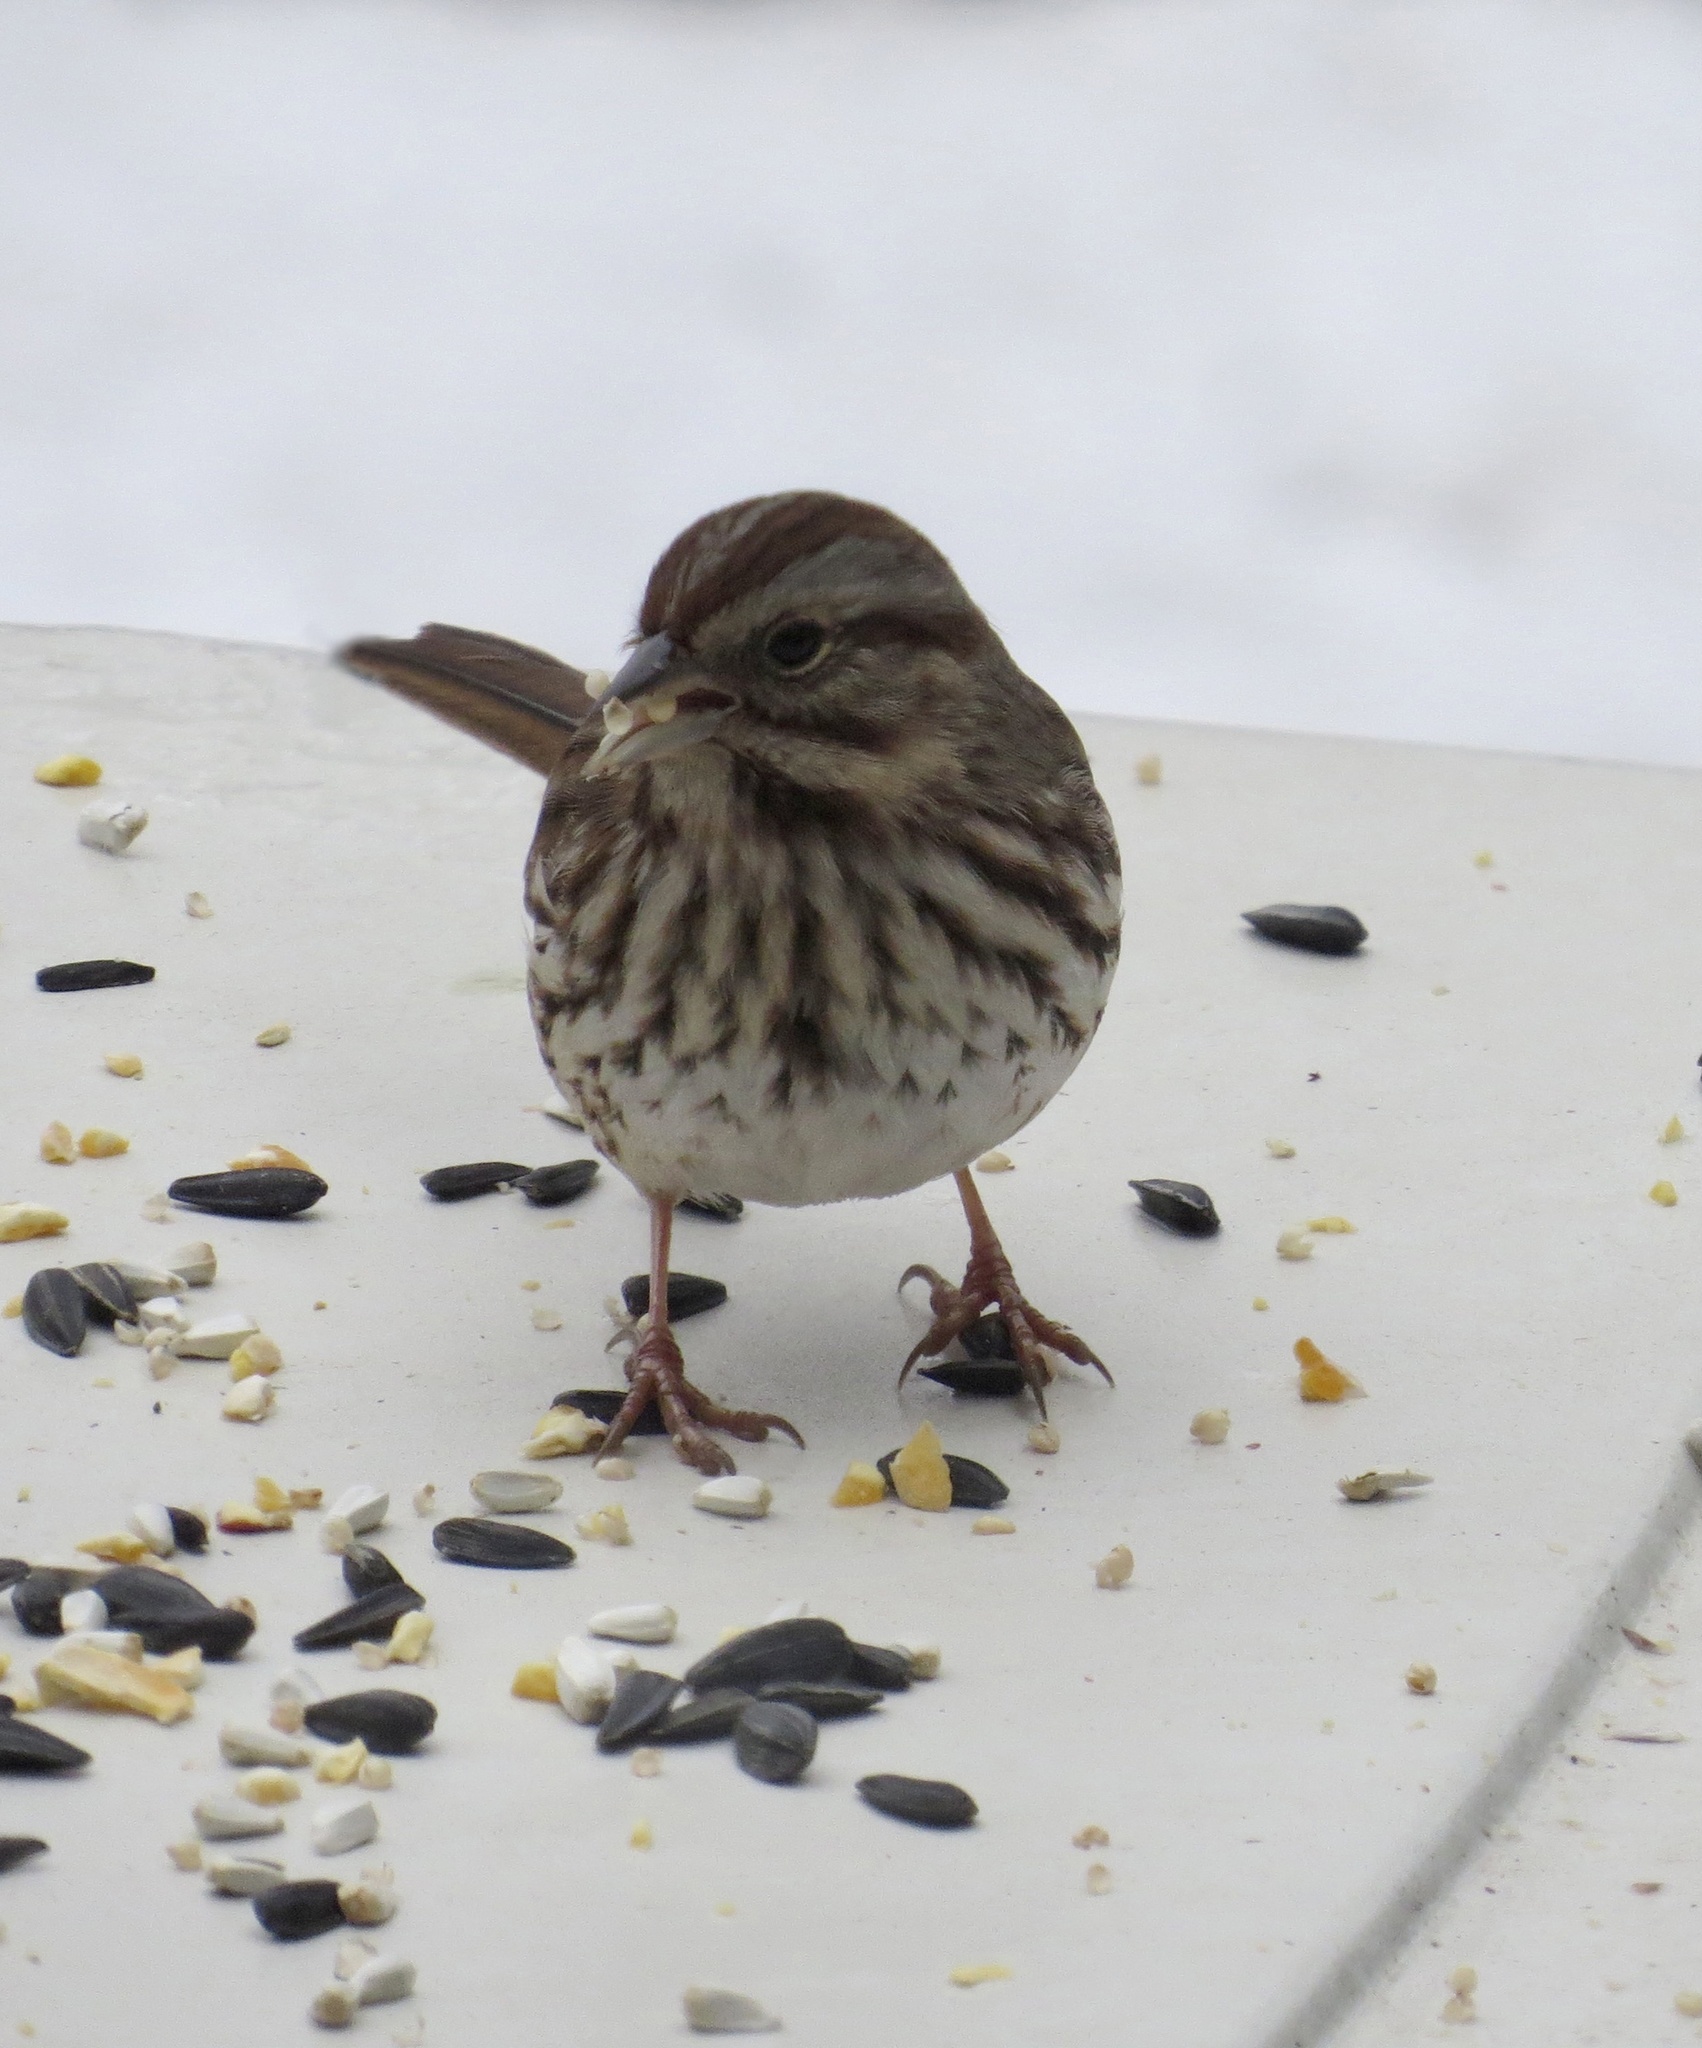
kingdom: Animalia
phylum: Chordata
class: Aves
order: Passeriformes
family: Passerellidae
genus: Melospiza
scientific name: Melospiza melodia
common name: Song sparrow
